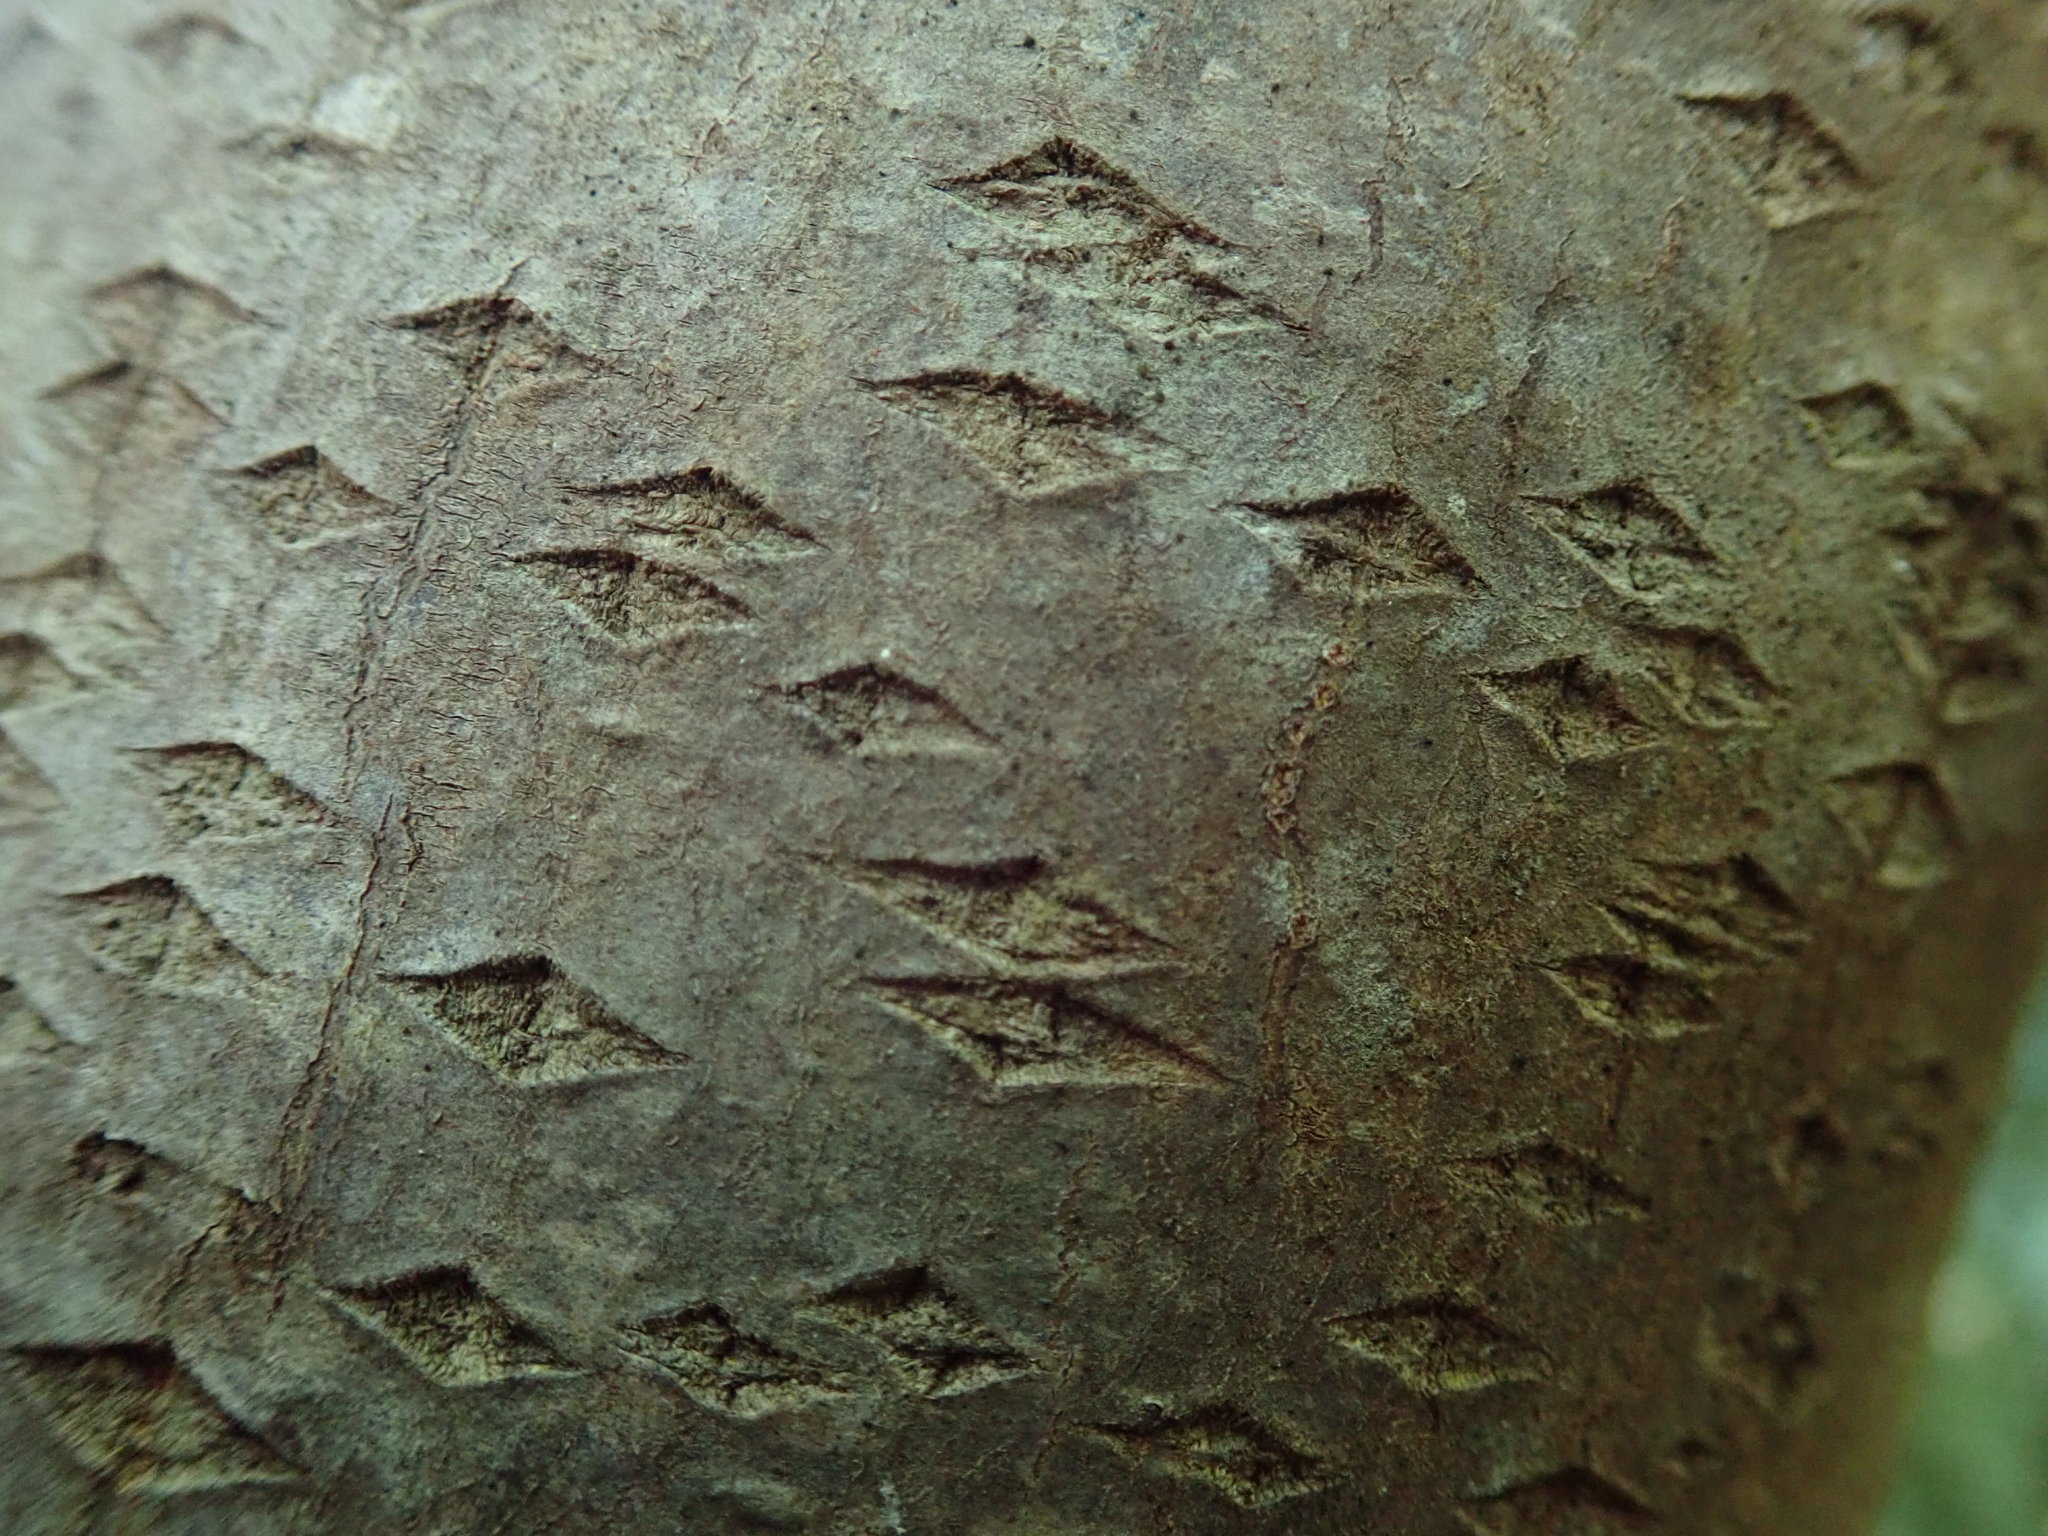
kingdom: Plantae
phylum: Tracheophyta
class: Magnoliopsida
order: Rosales
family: Rhamnaceae
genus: Frangula
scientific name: Frangula purshiana
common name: Cascara buckthorn
